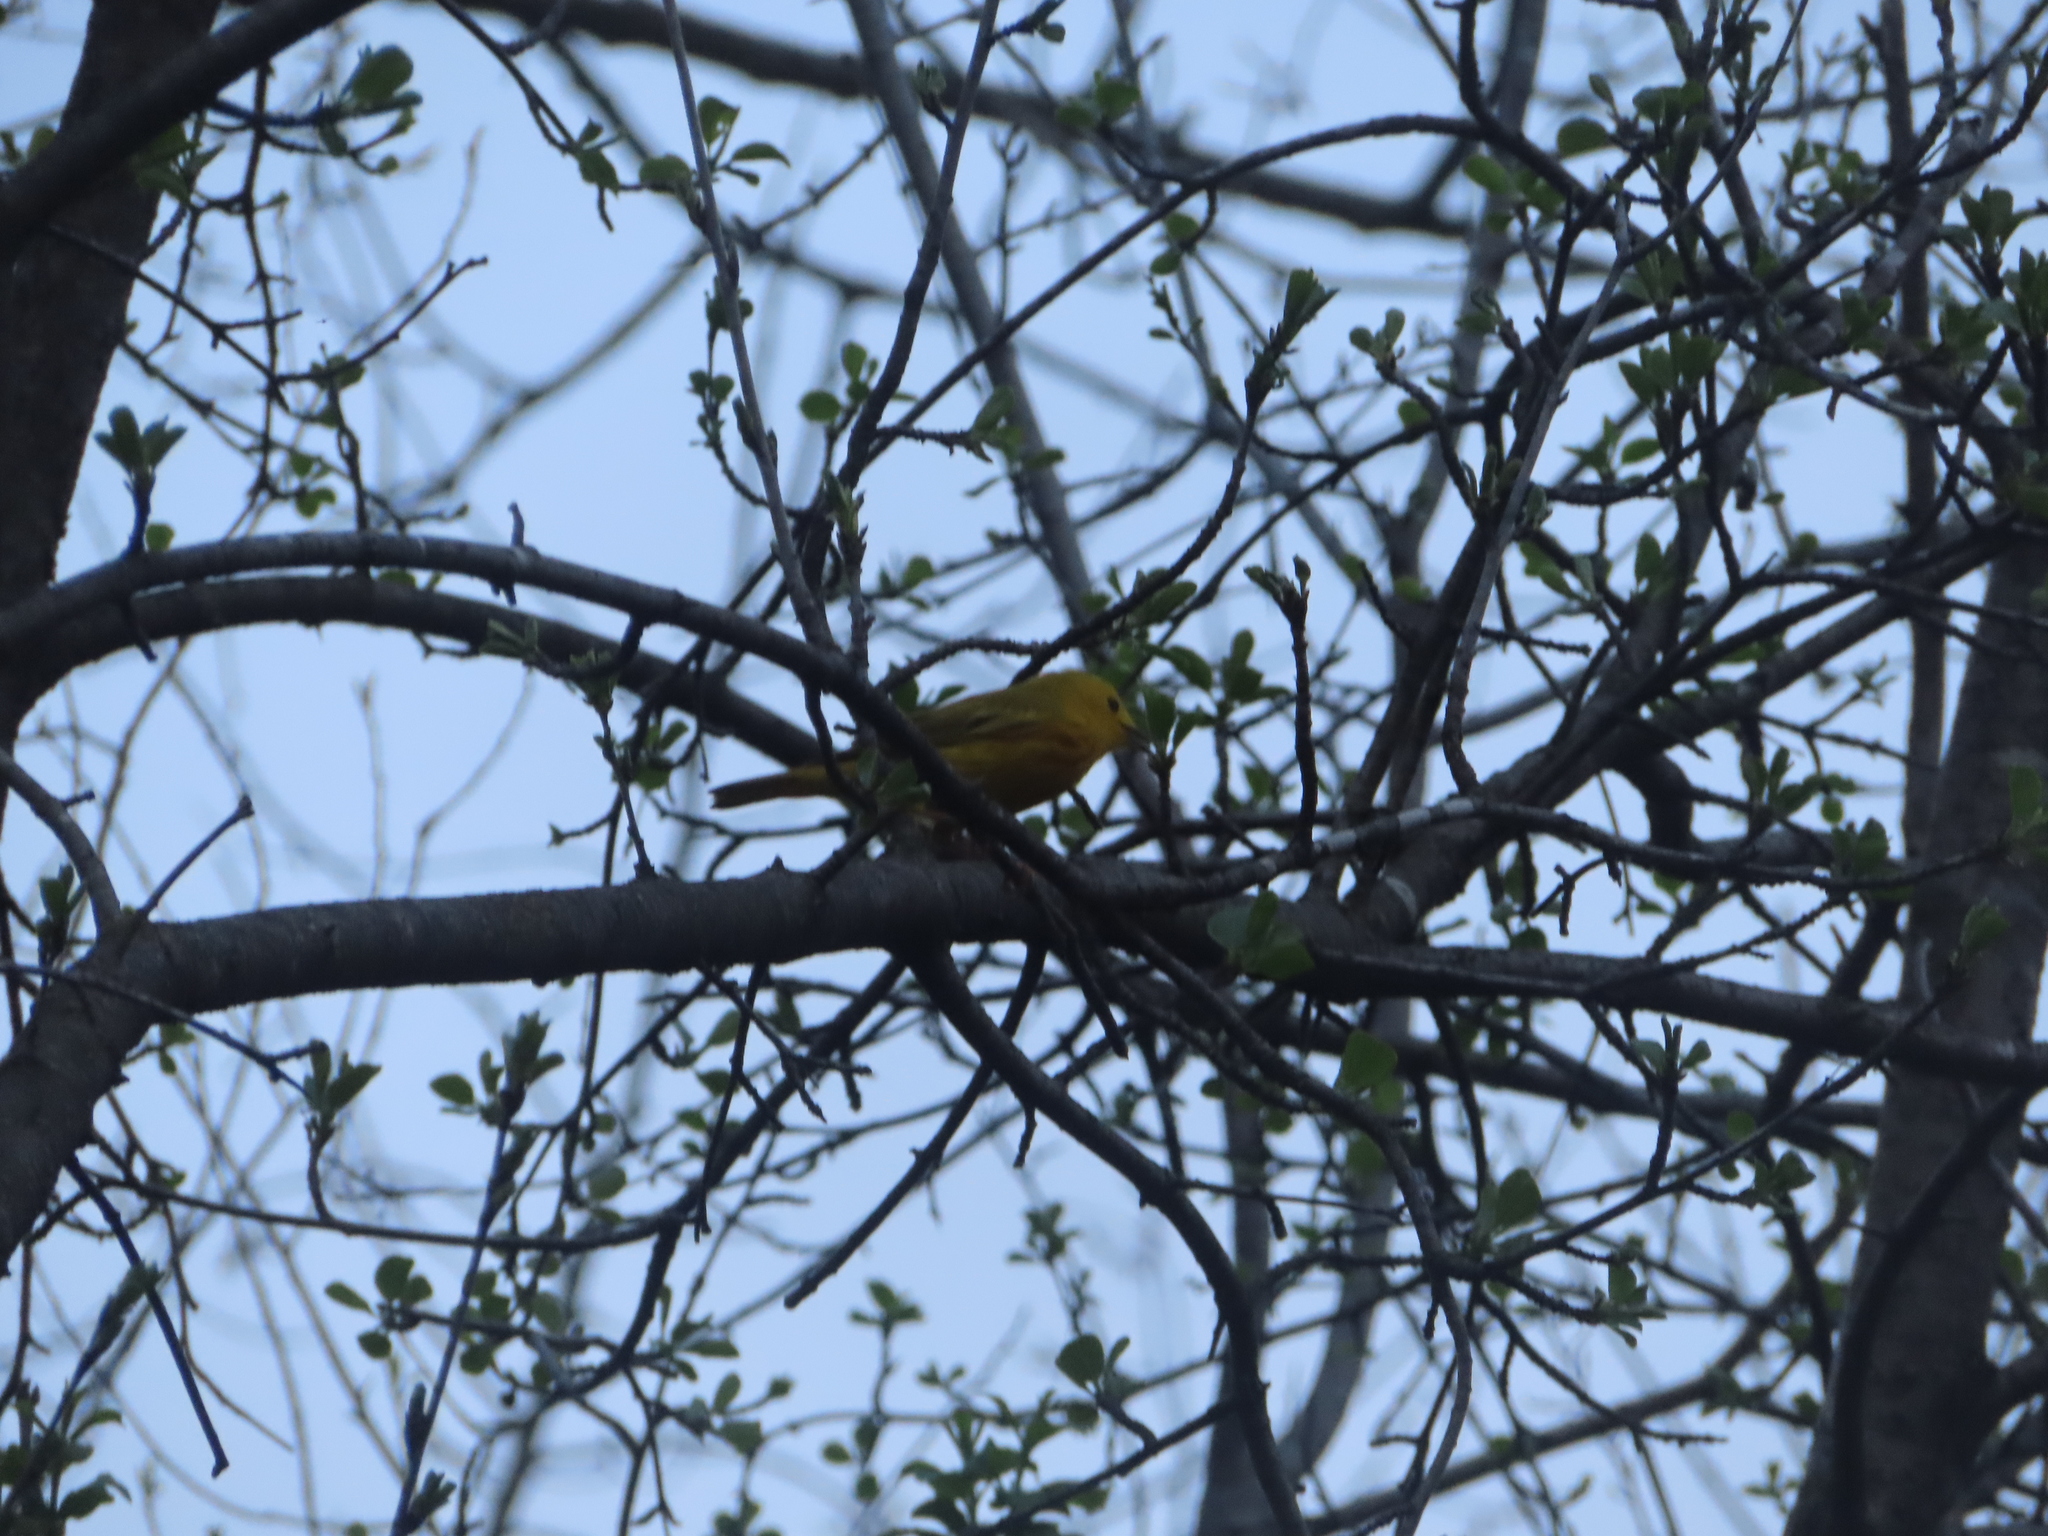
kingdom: Animalia
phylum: Chordata
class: Aves
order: Passeriformes
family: Parulidae
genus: Setophaga
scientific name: Setophaga petechia
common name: Yellow warbler
